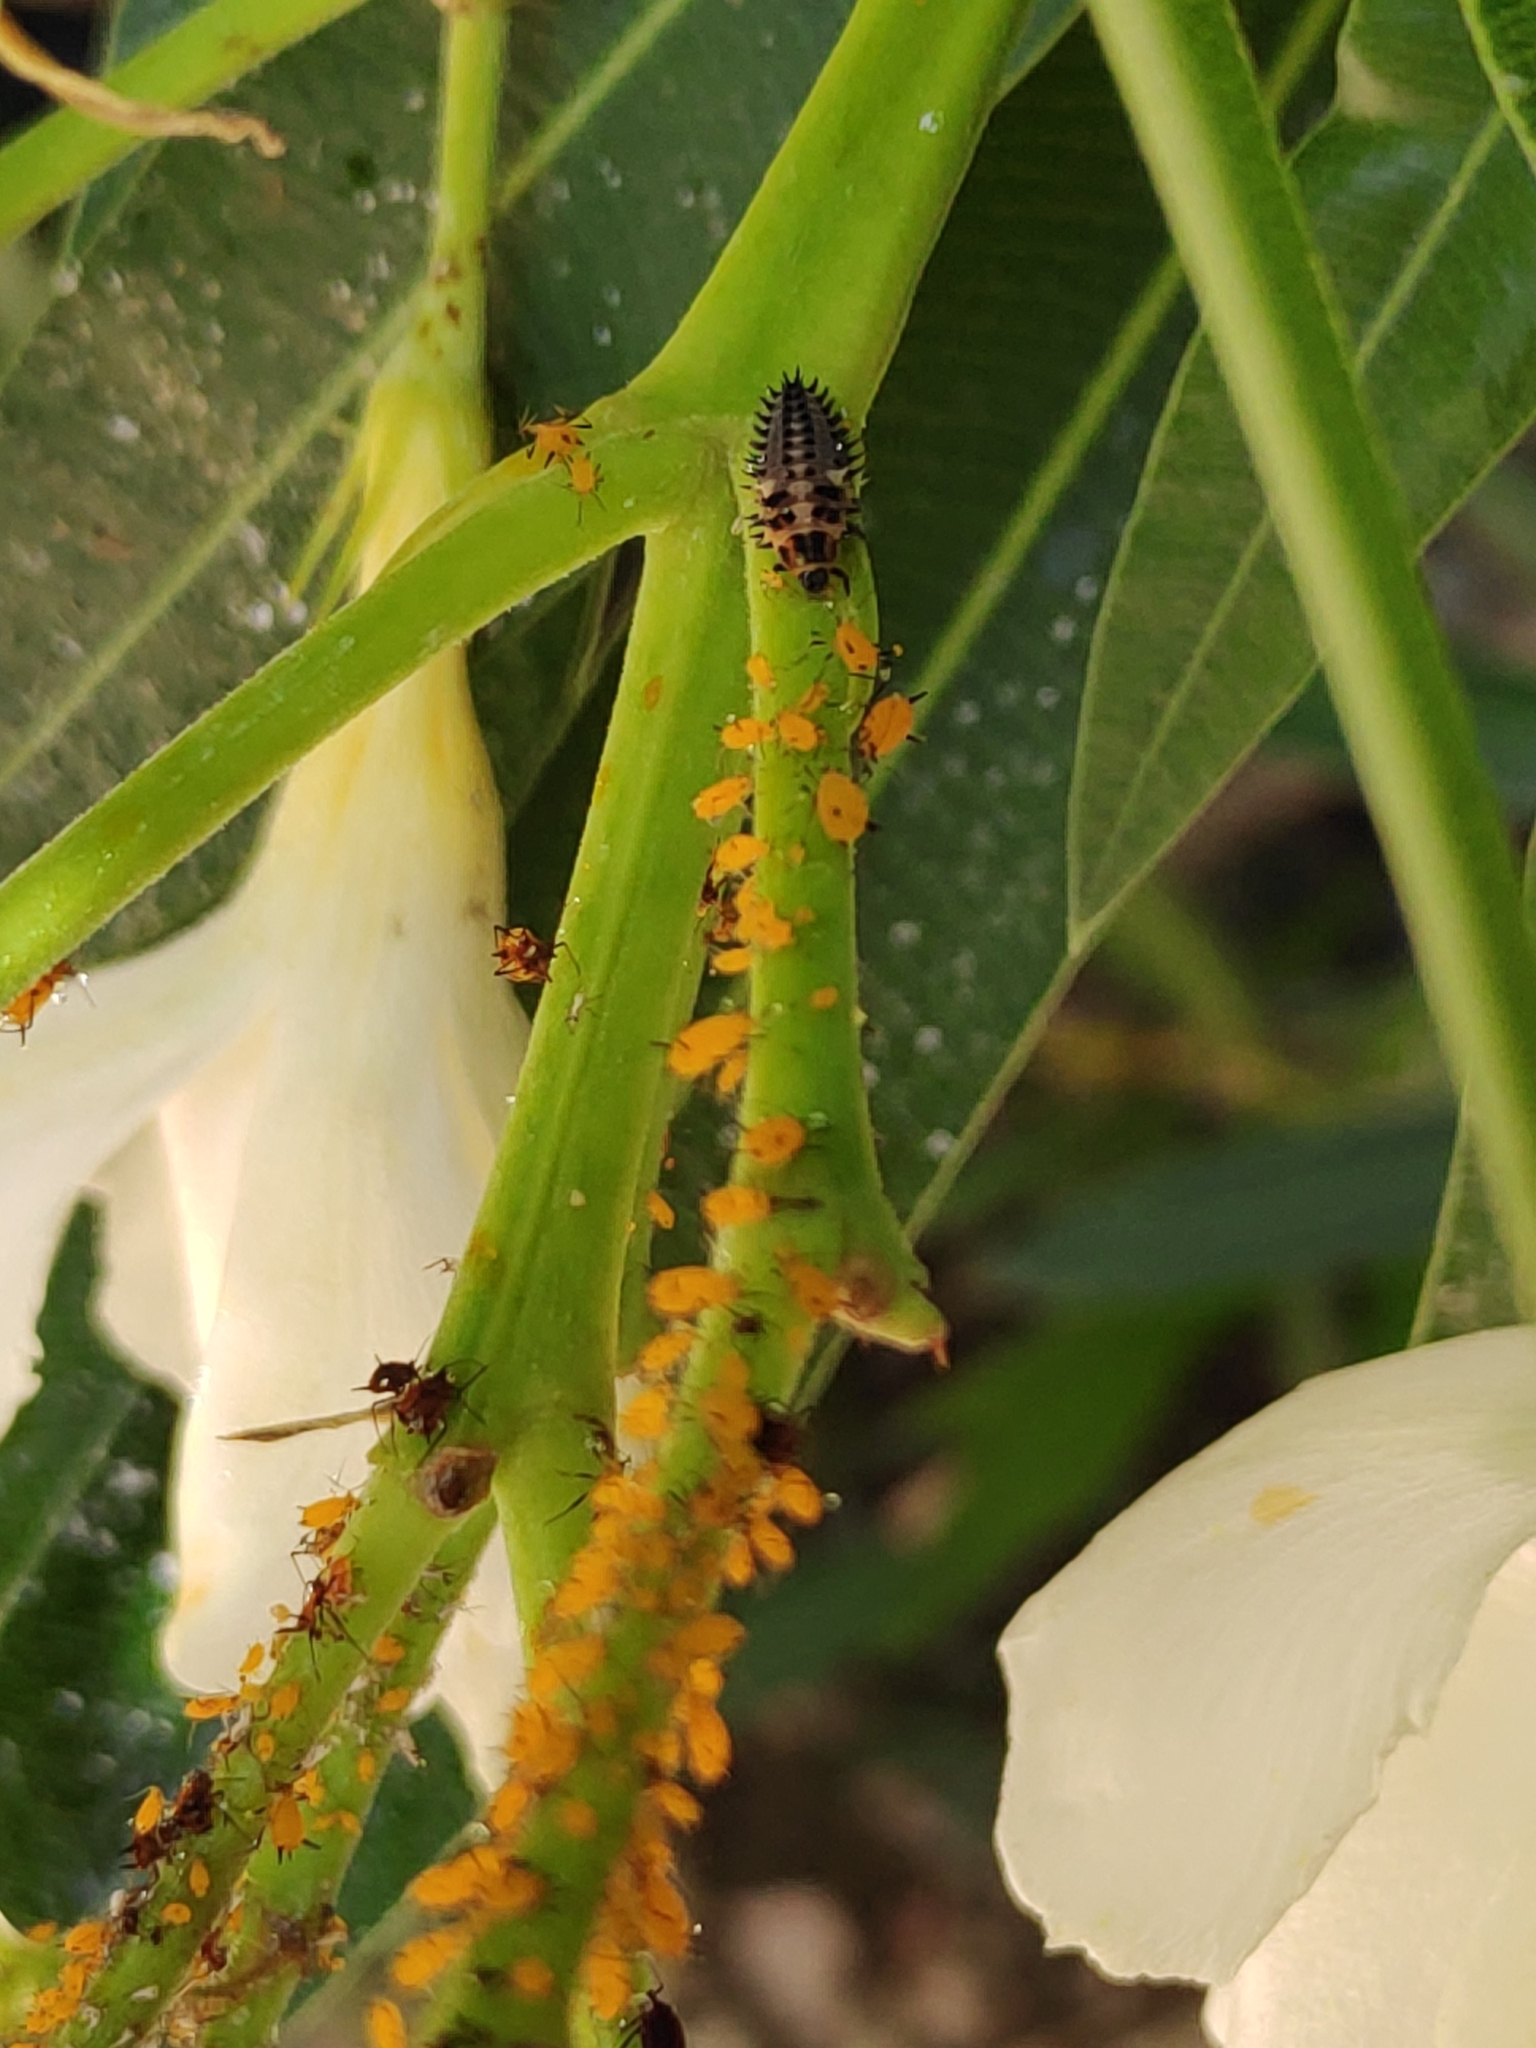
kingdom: Animalia
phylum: Arthropoda
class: Insecta
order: Hemiptera
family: Aphididae
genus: Aphis
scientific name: Aphis nerii
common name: Oleander aphid
